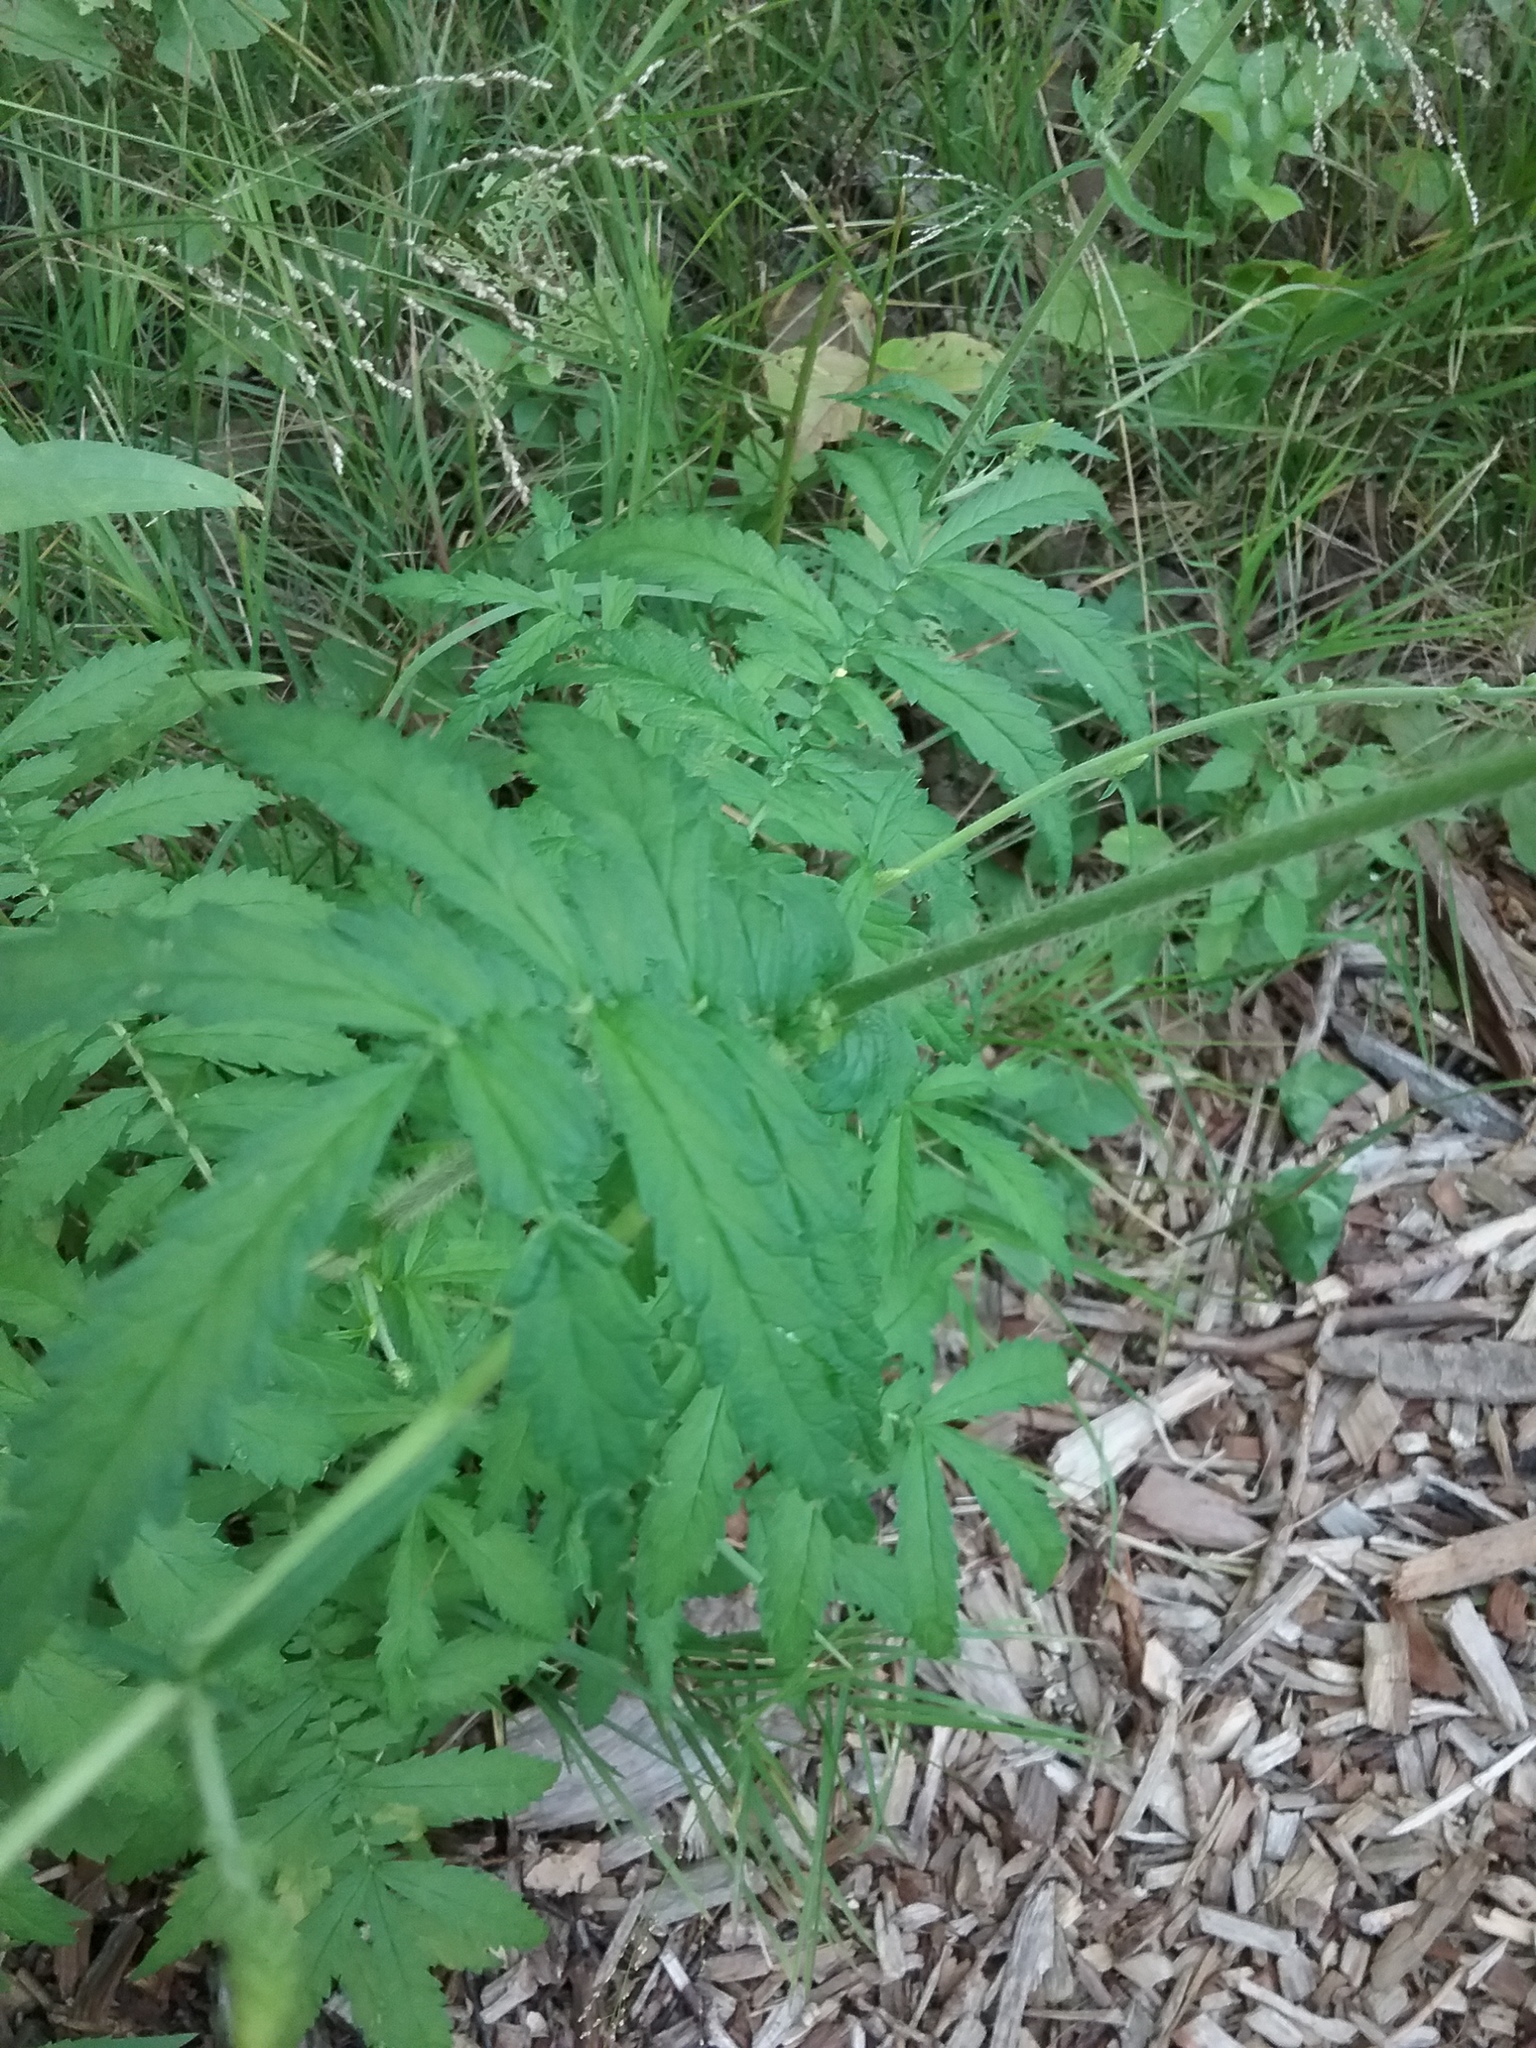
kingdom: Plantae
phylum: Tracheophyta
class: Magnoliopsida
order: Rosales
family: Rosaceae
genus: Agrimonia
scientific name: Agrimonia parviflora
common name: Harvest-lice
